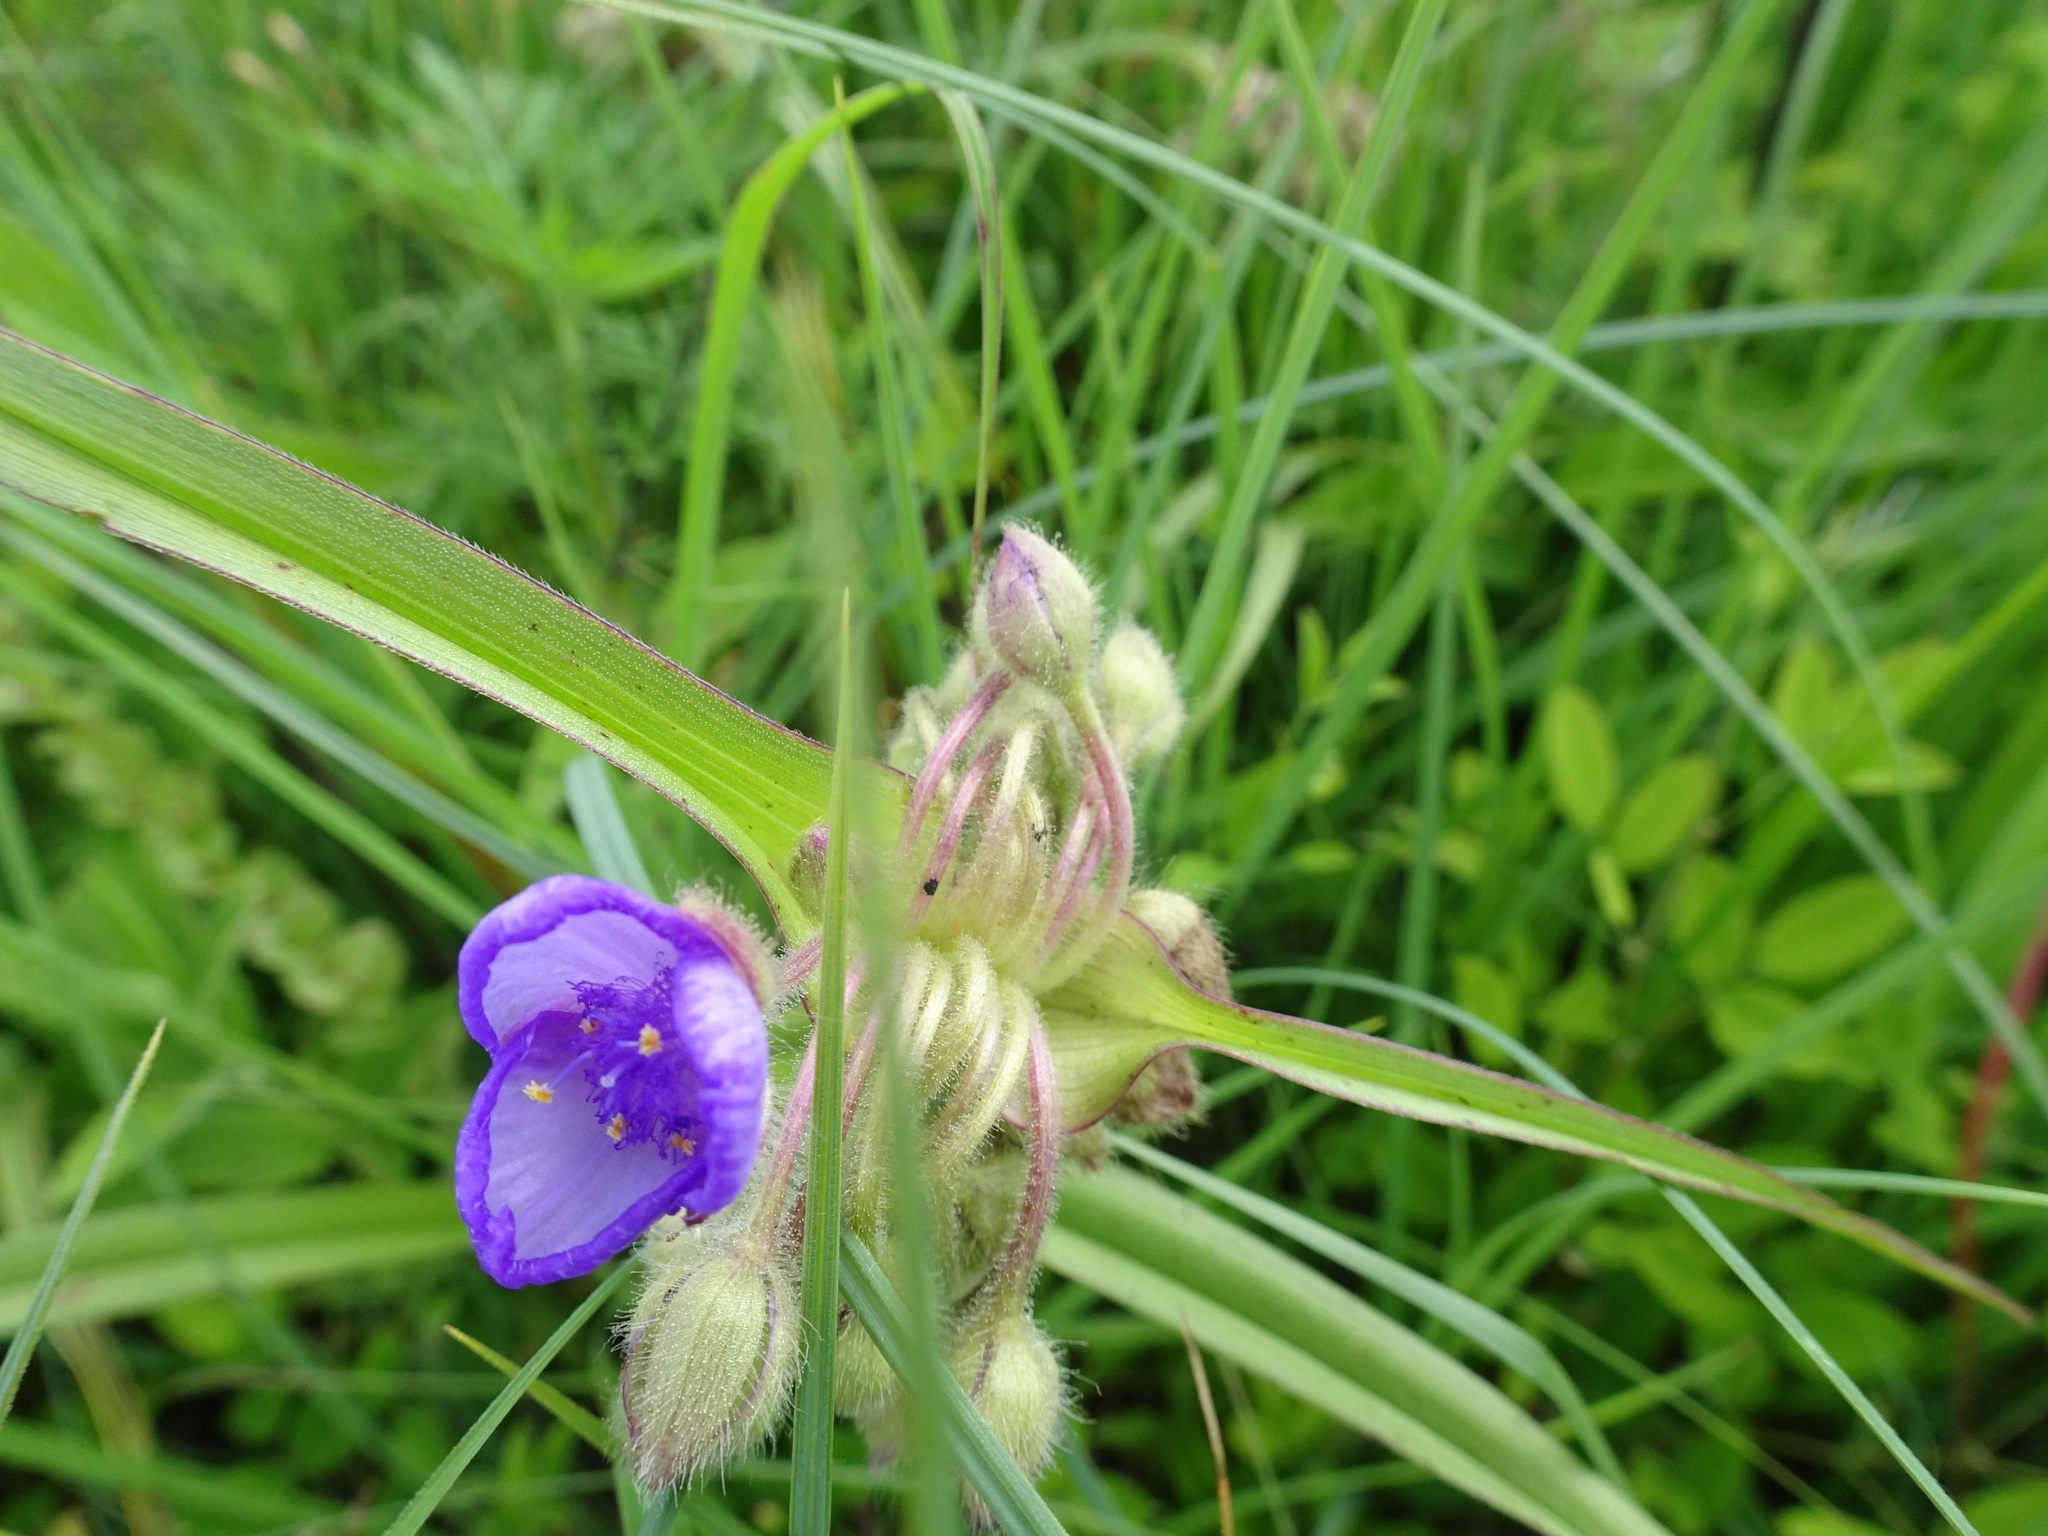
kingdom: Plantae
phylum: Tracheophyta
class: Liliopsida
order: Commelinales
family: Commelinaceae
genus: Tradescantia
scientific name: Tradescantia bracteata
